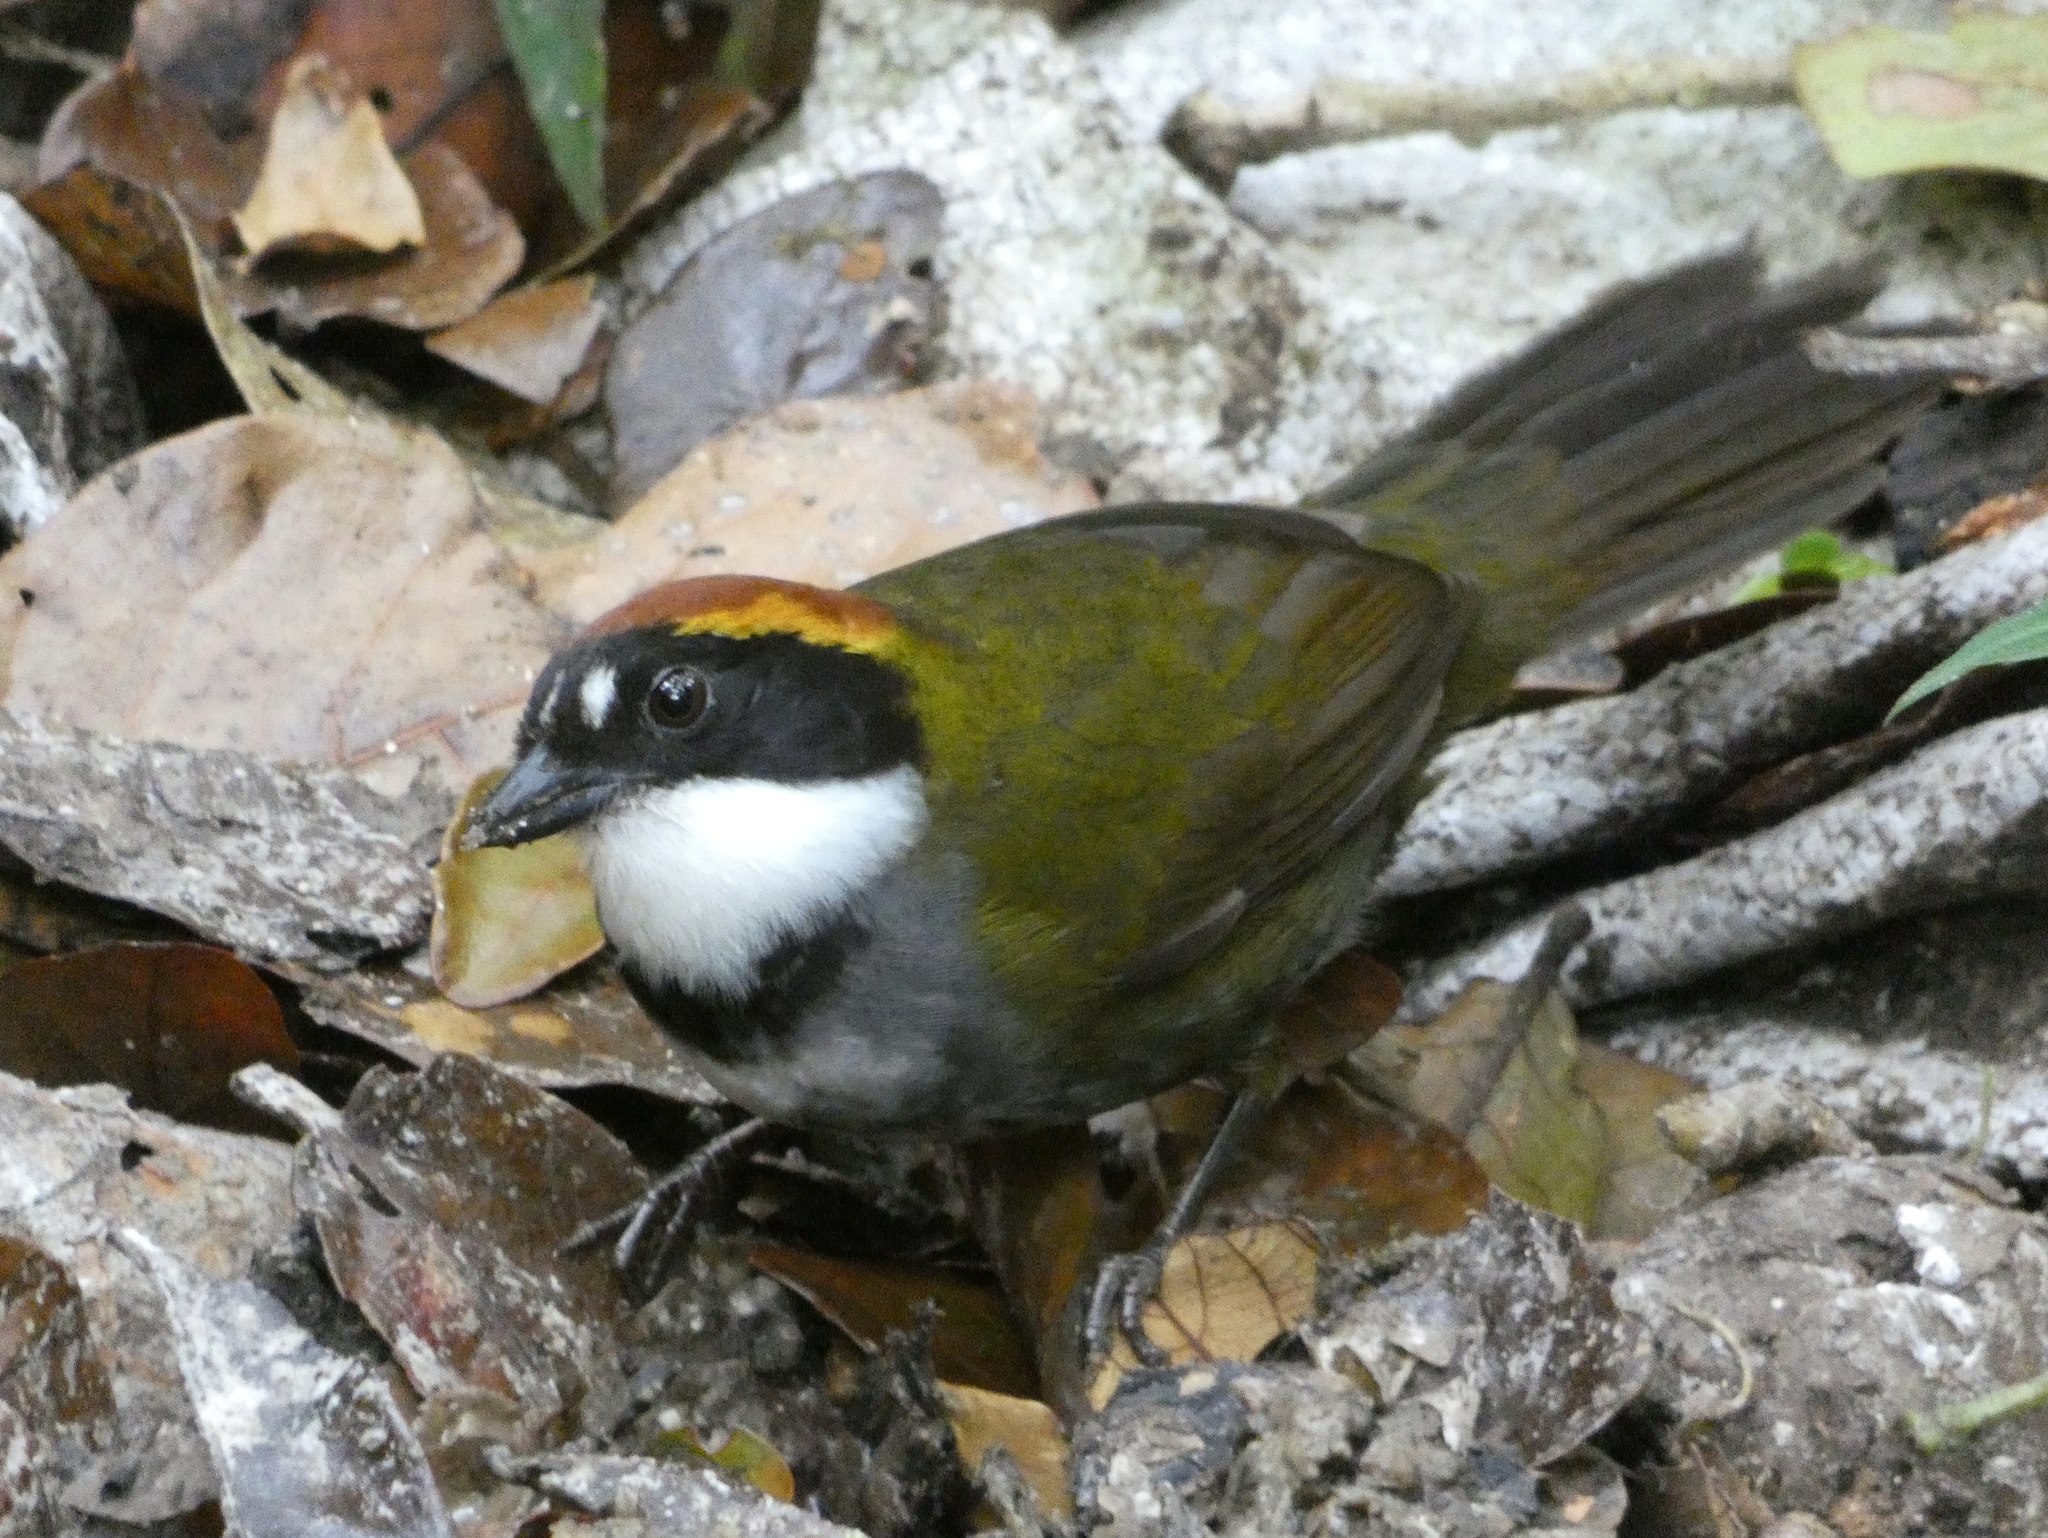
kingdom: Animalia
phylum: Chordata
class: Aves
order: Passeriformes
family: Passerellidae
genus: Arremon
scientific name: Arremon brunneinucha
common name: Chestnut-capped brushfinch
